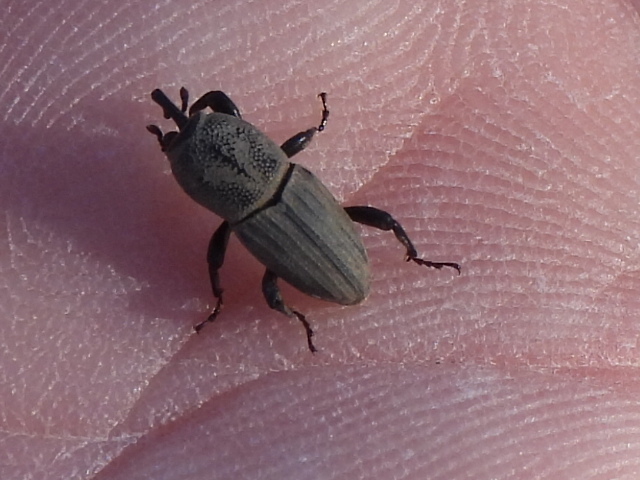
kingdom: Animalia
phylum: Arthropoda
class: Insecta
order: Coleoptera
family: Dryophthoridae
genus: Sphenophorus
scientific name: Sphenophorus coesifrons
